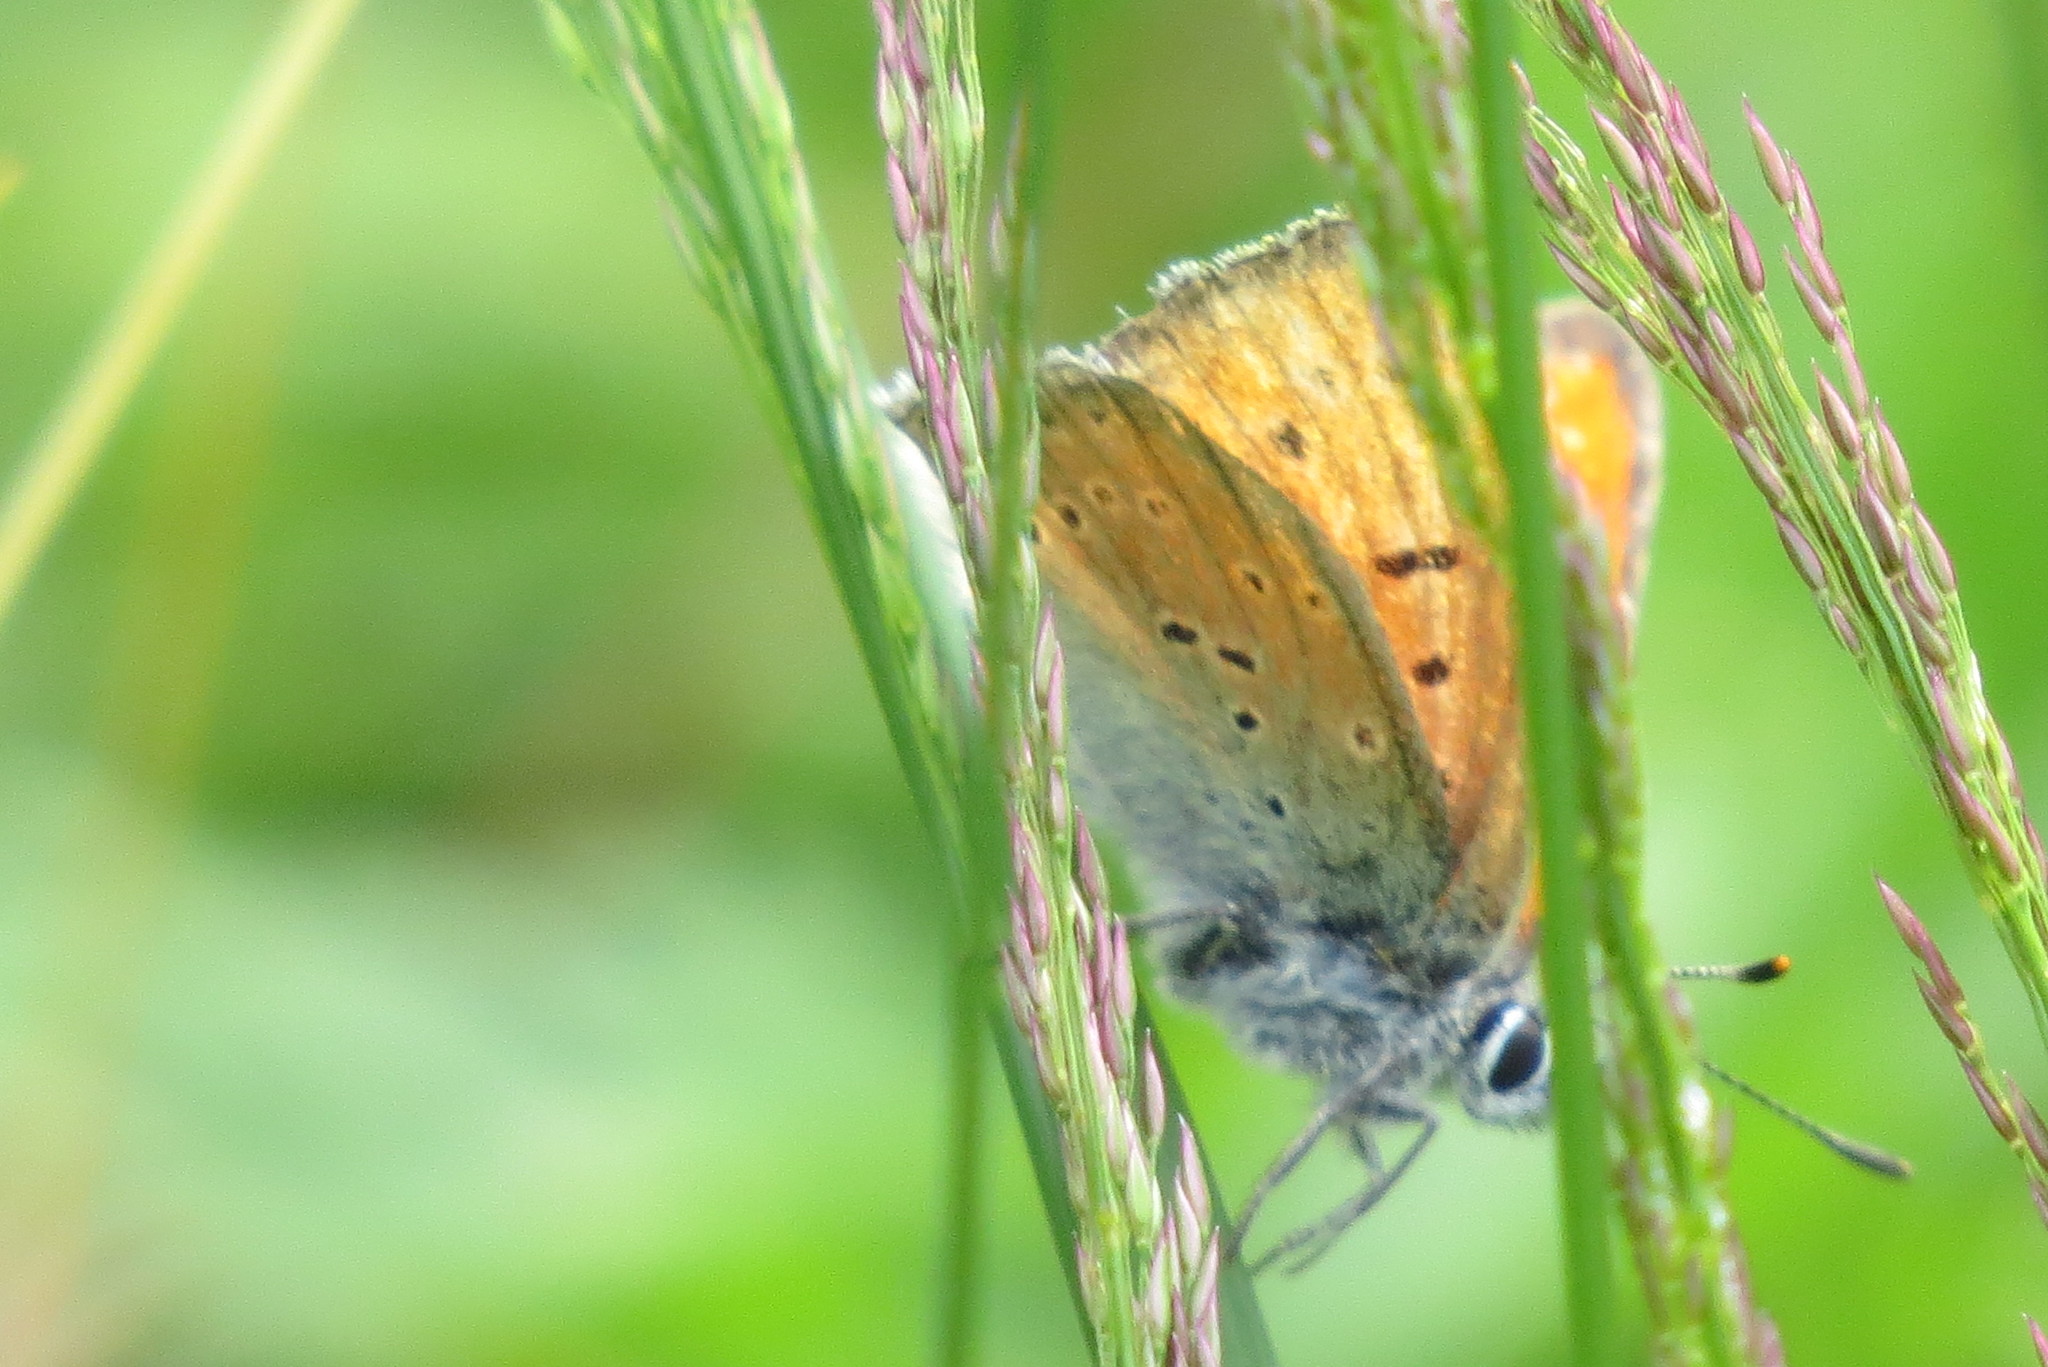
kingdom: Animalia
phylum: Arthropoda
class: Insecta
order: Lepidoptera
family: Lycaenidae
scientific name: Lycaenidae
